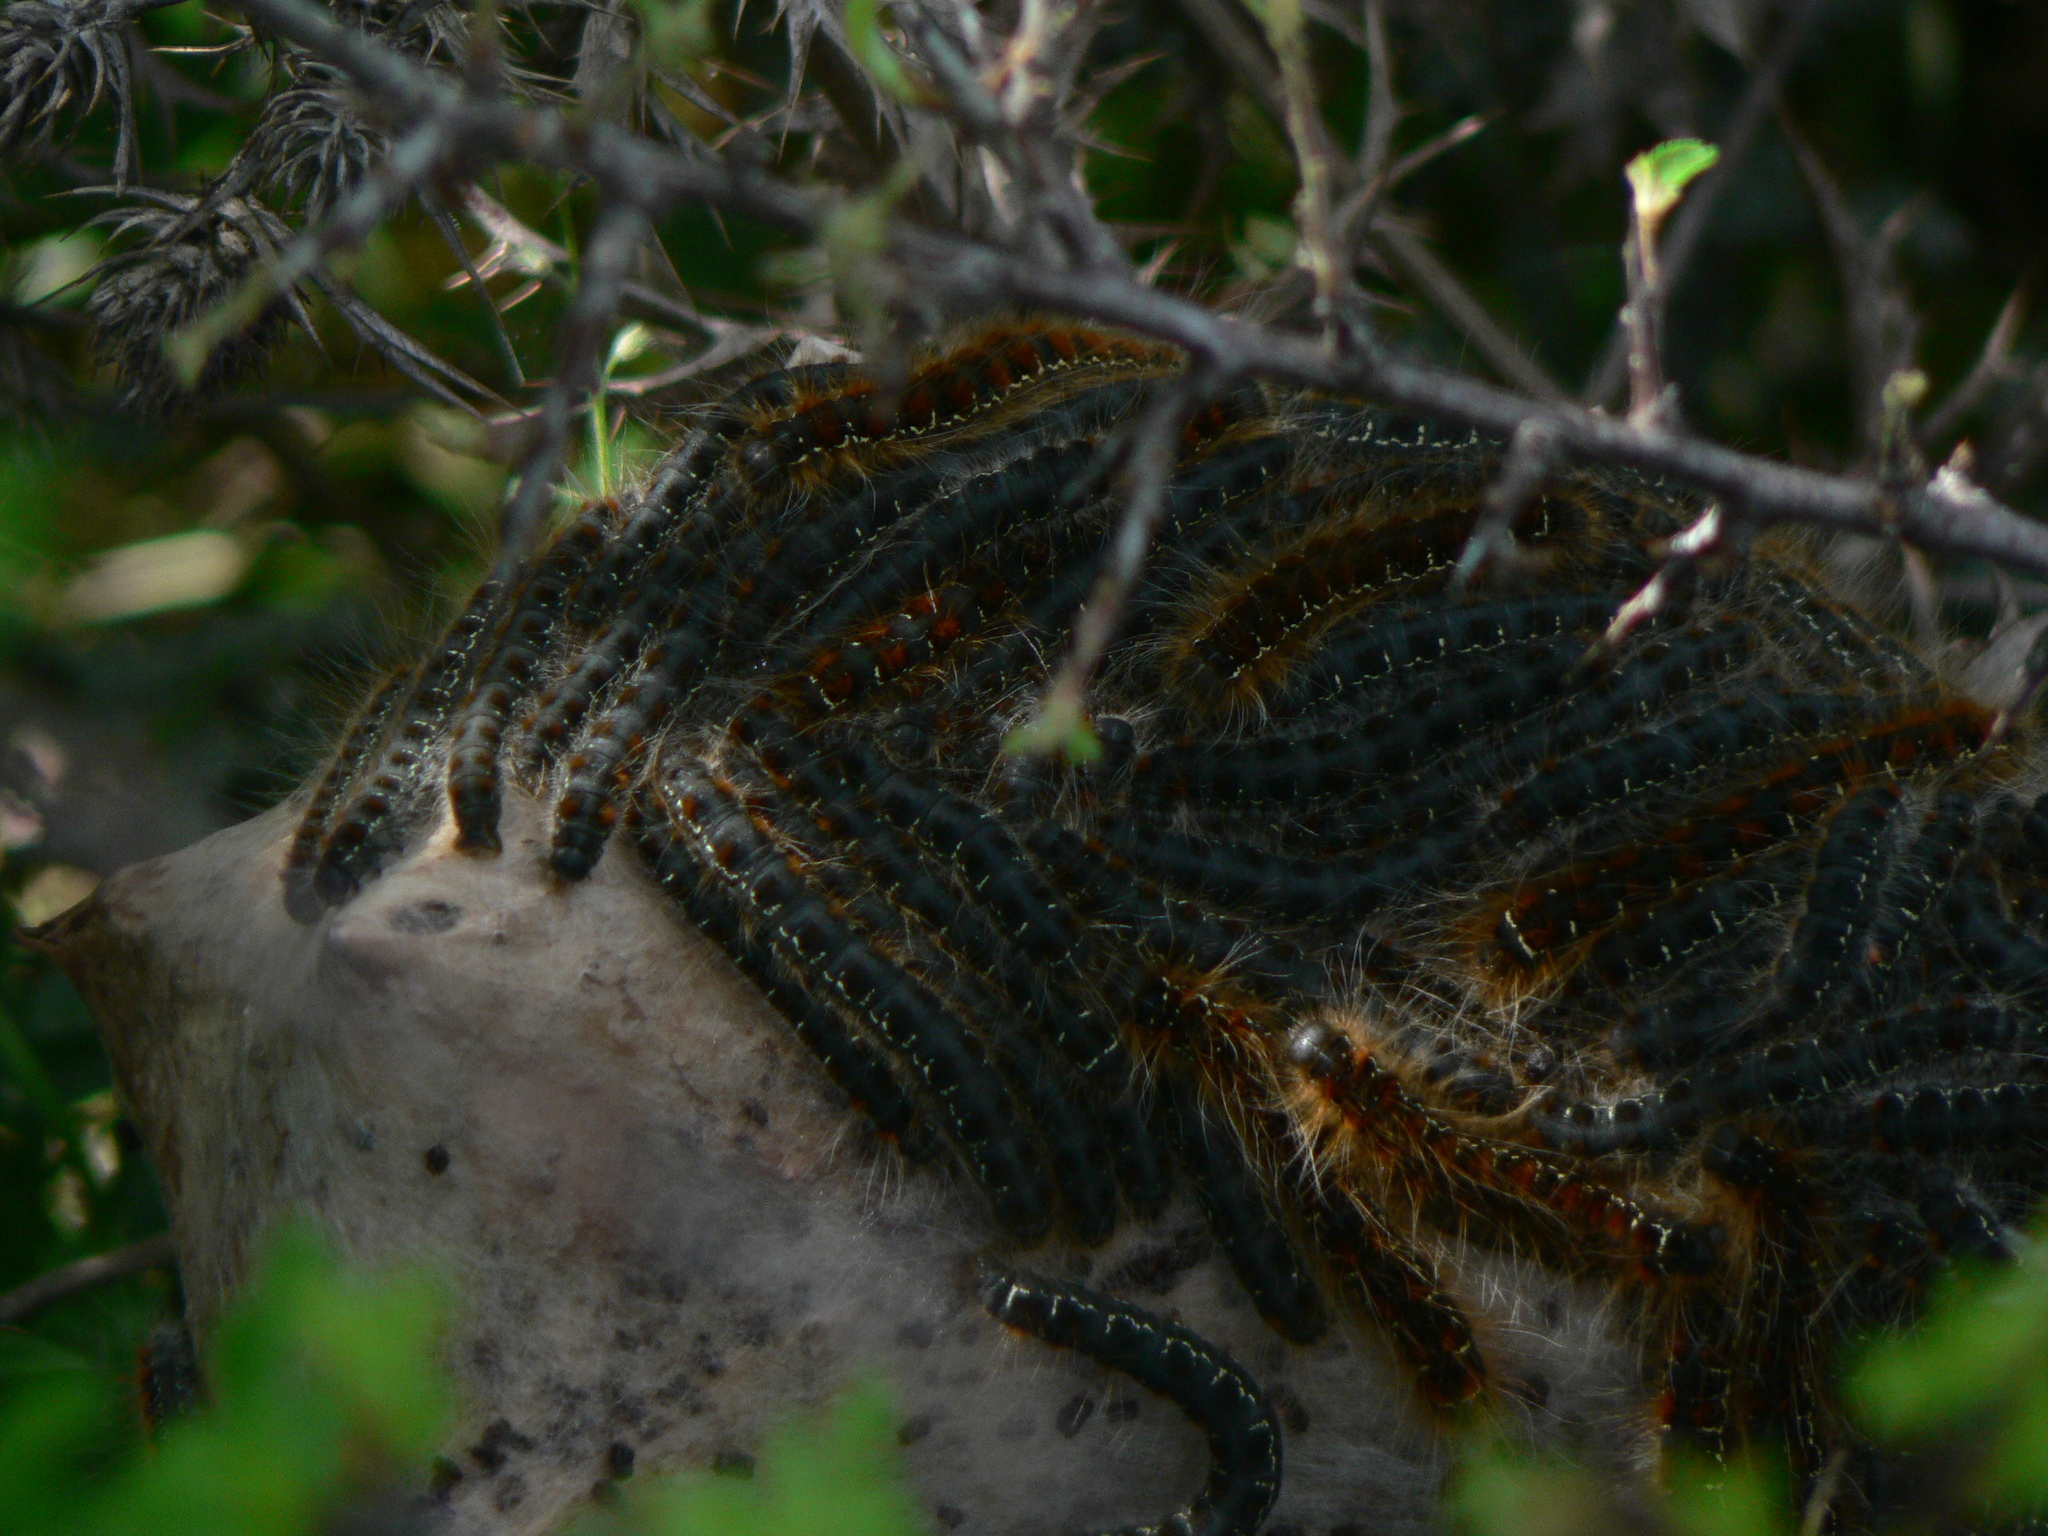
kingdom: Animalia
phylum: Arthropoda
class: Insecta
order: Lepidoptera
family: Lasiocampidae
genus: Eriogaster
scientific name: Eriogaster lanestris
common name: Small eggar
